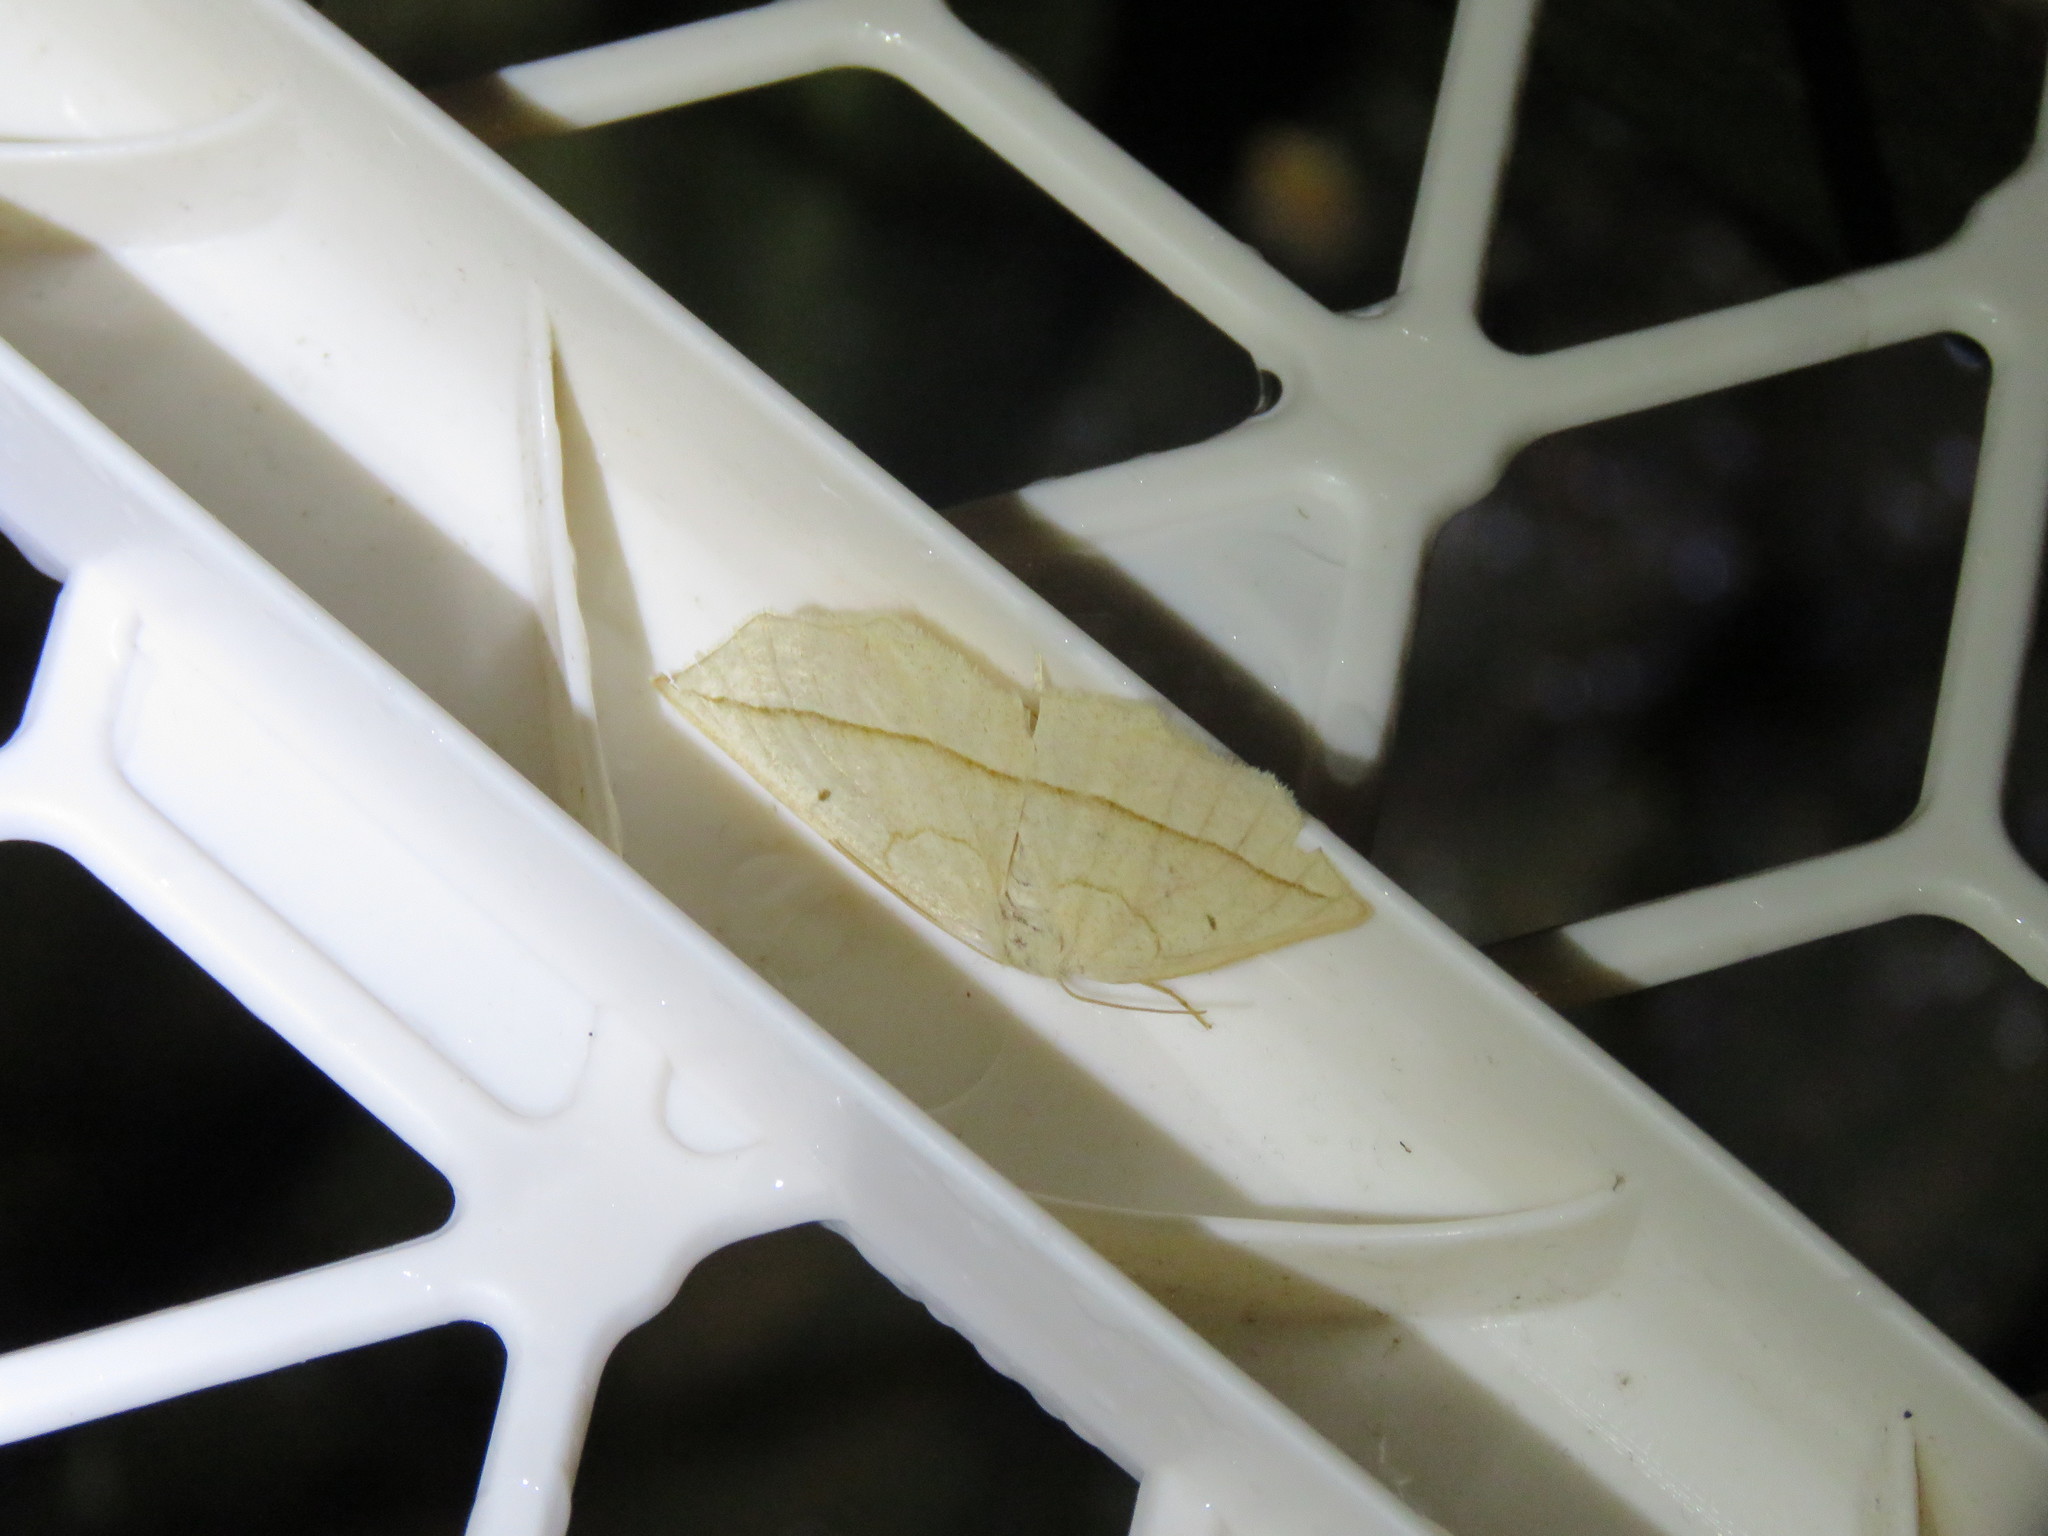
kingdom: Animalia
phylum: Arthropoda
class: Insecta
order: Lepidoptera
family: Geometridae
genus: Eusarca
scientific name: Eusarca confusaria
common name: Confused eusarca
